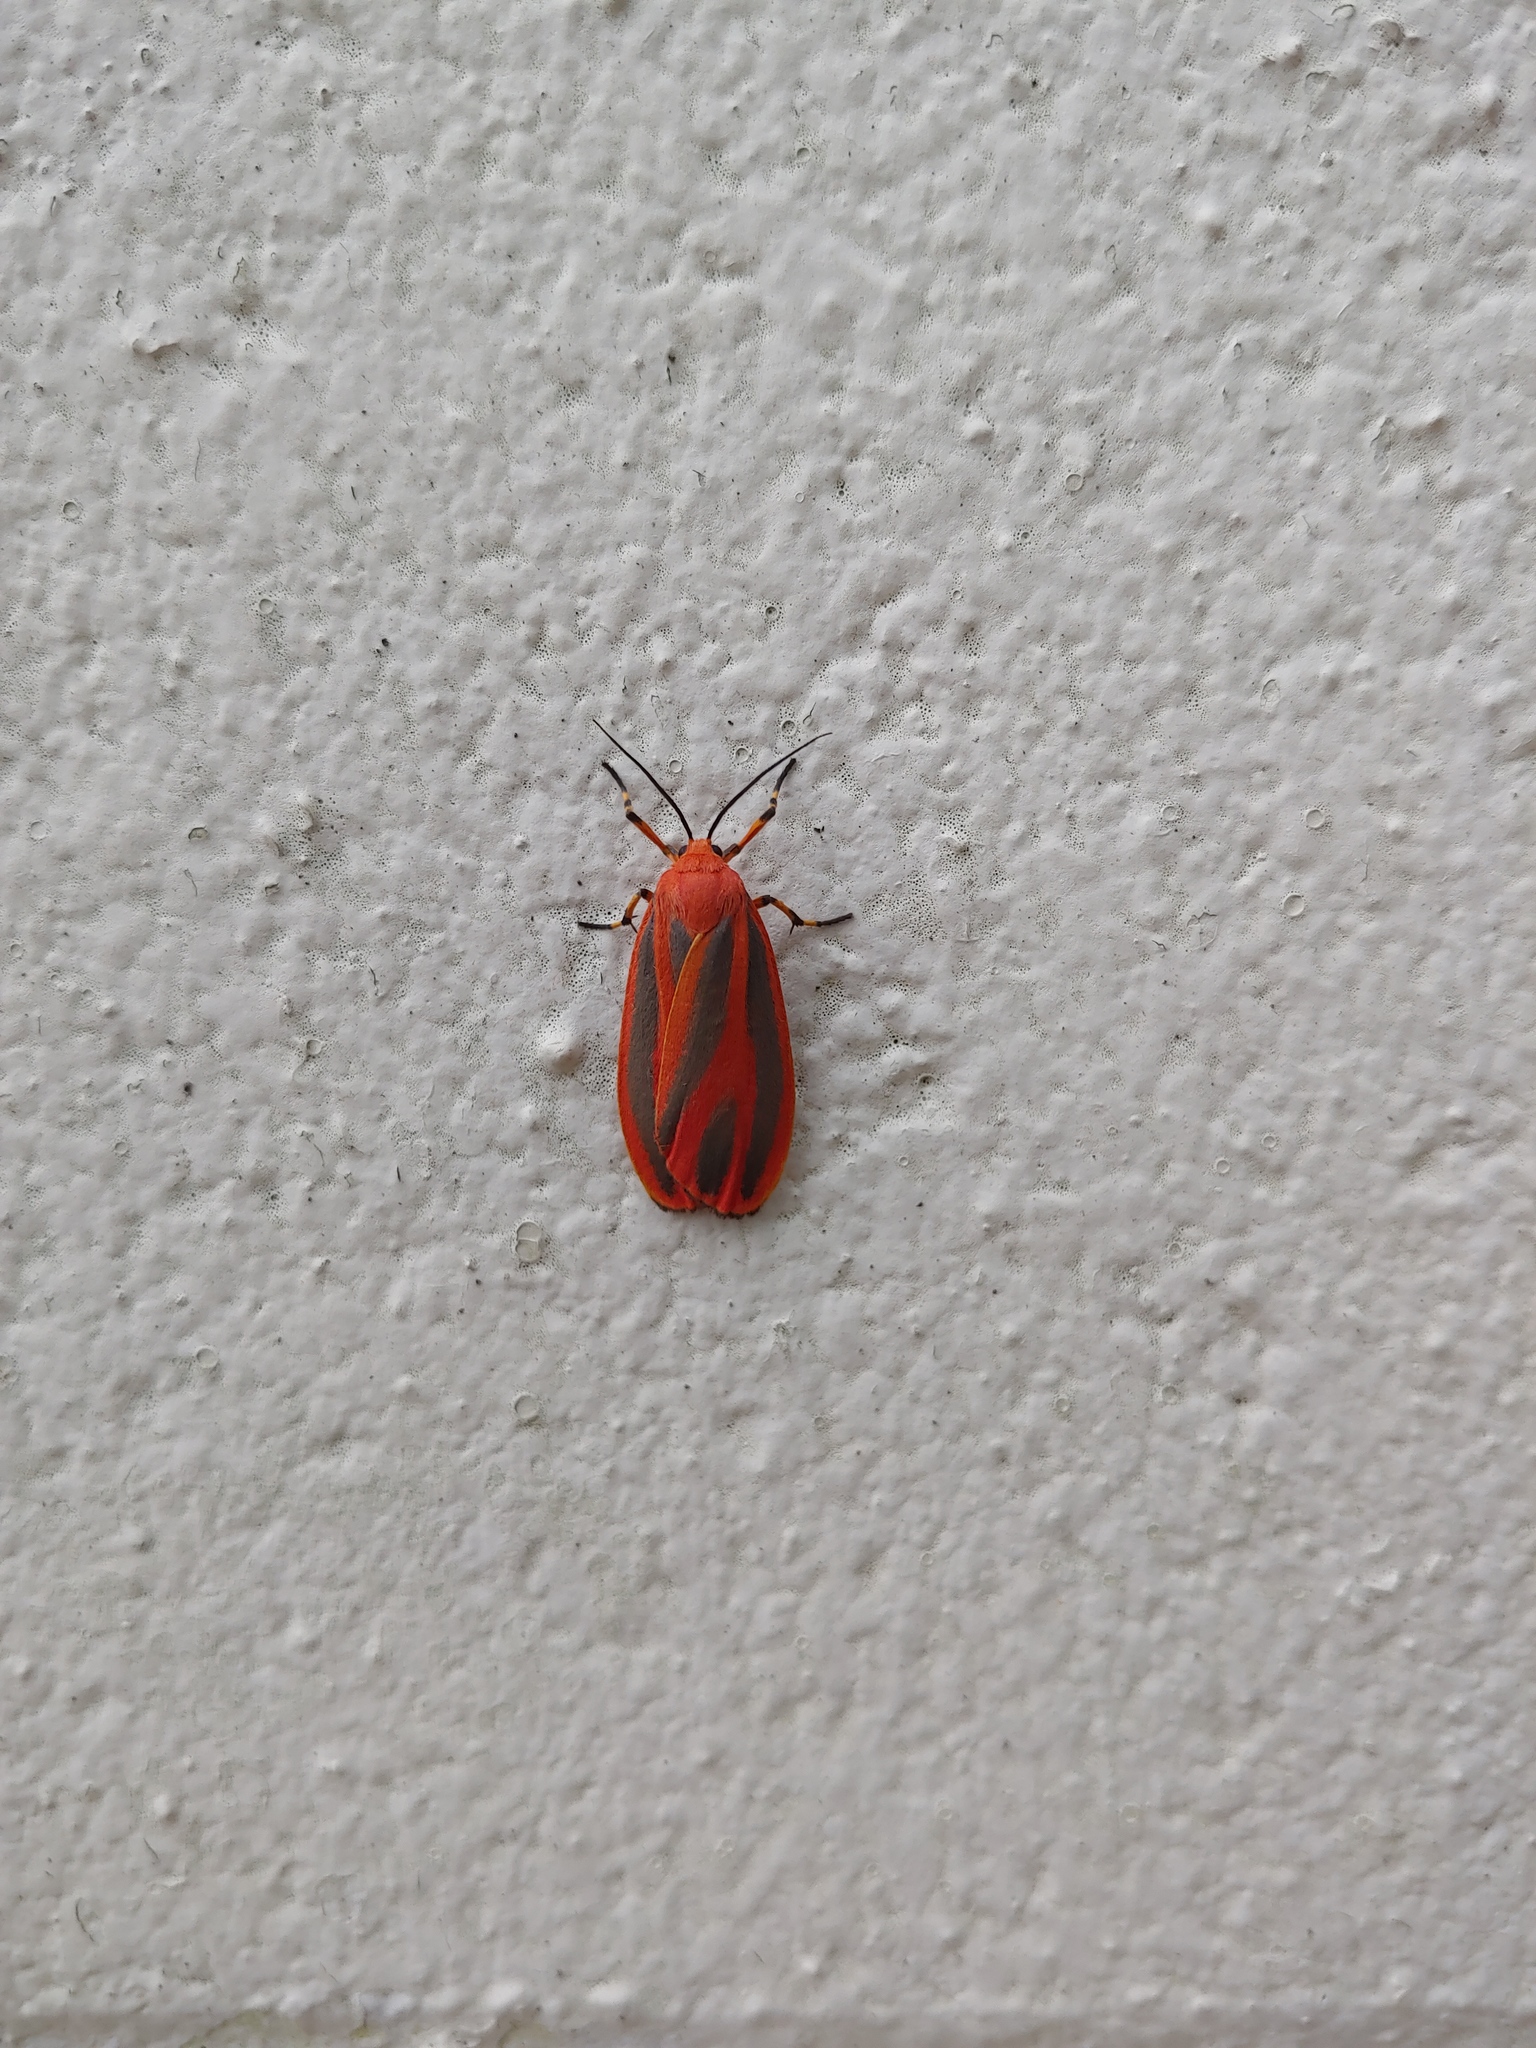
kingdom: Animalia
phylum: Arthropoda
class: Insecta
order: Lepidoptera
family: Erebidae
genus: Hypoprepia
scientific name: Hypoprepia miniata
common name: Scarlet-winged lichen moth
